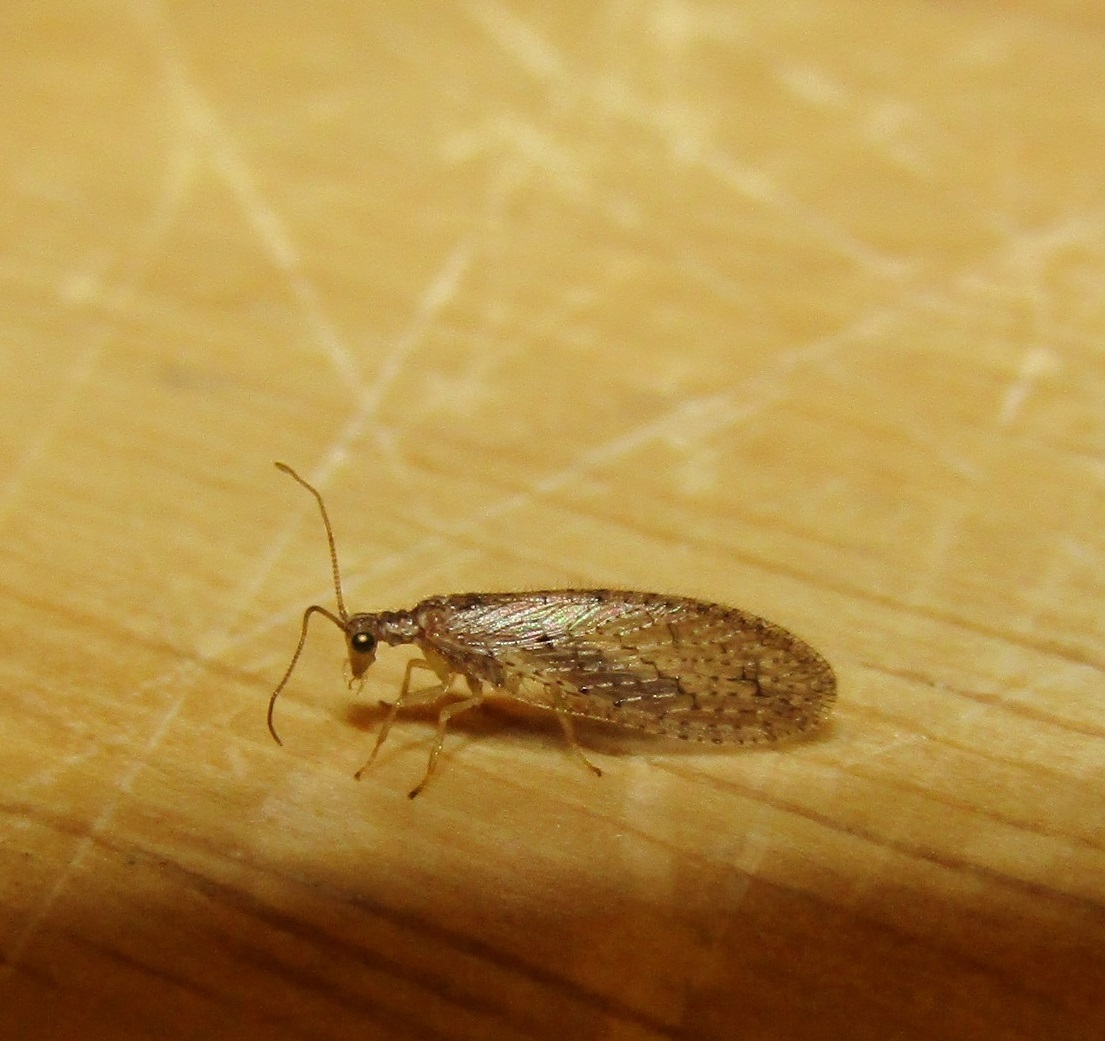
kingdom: Animalia
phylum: Arthropoda
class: Insecta
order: Neuroptera
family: Hemerobiidae
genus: Micromus
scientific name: Micromus tasmaniae
